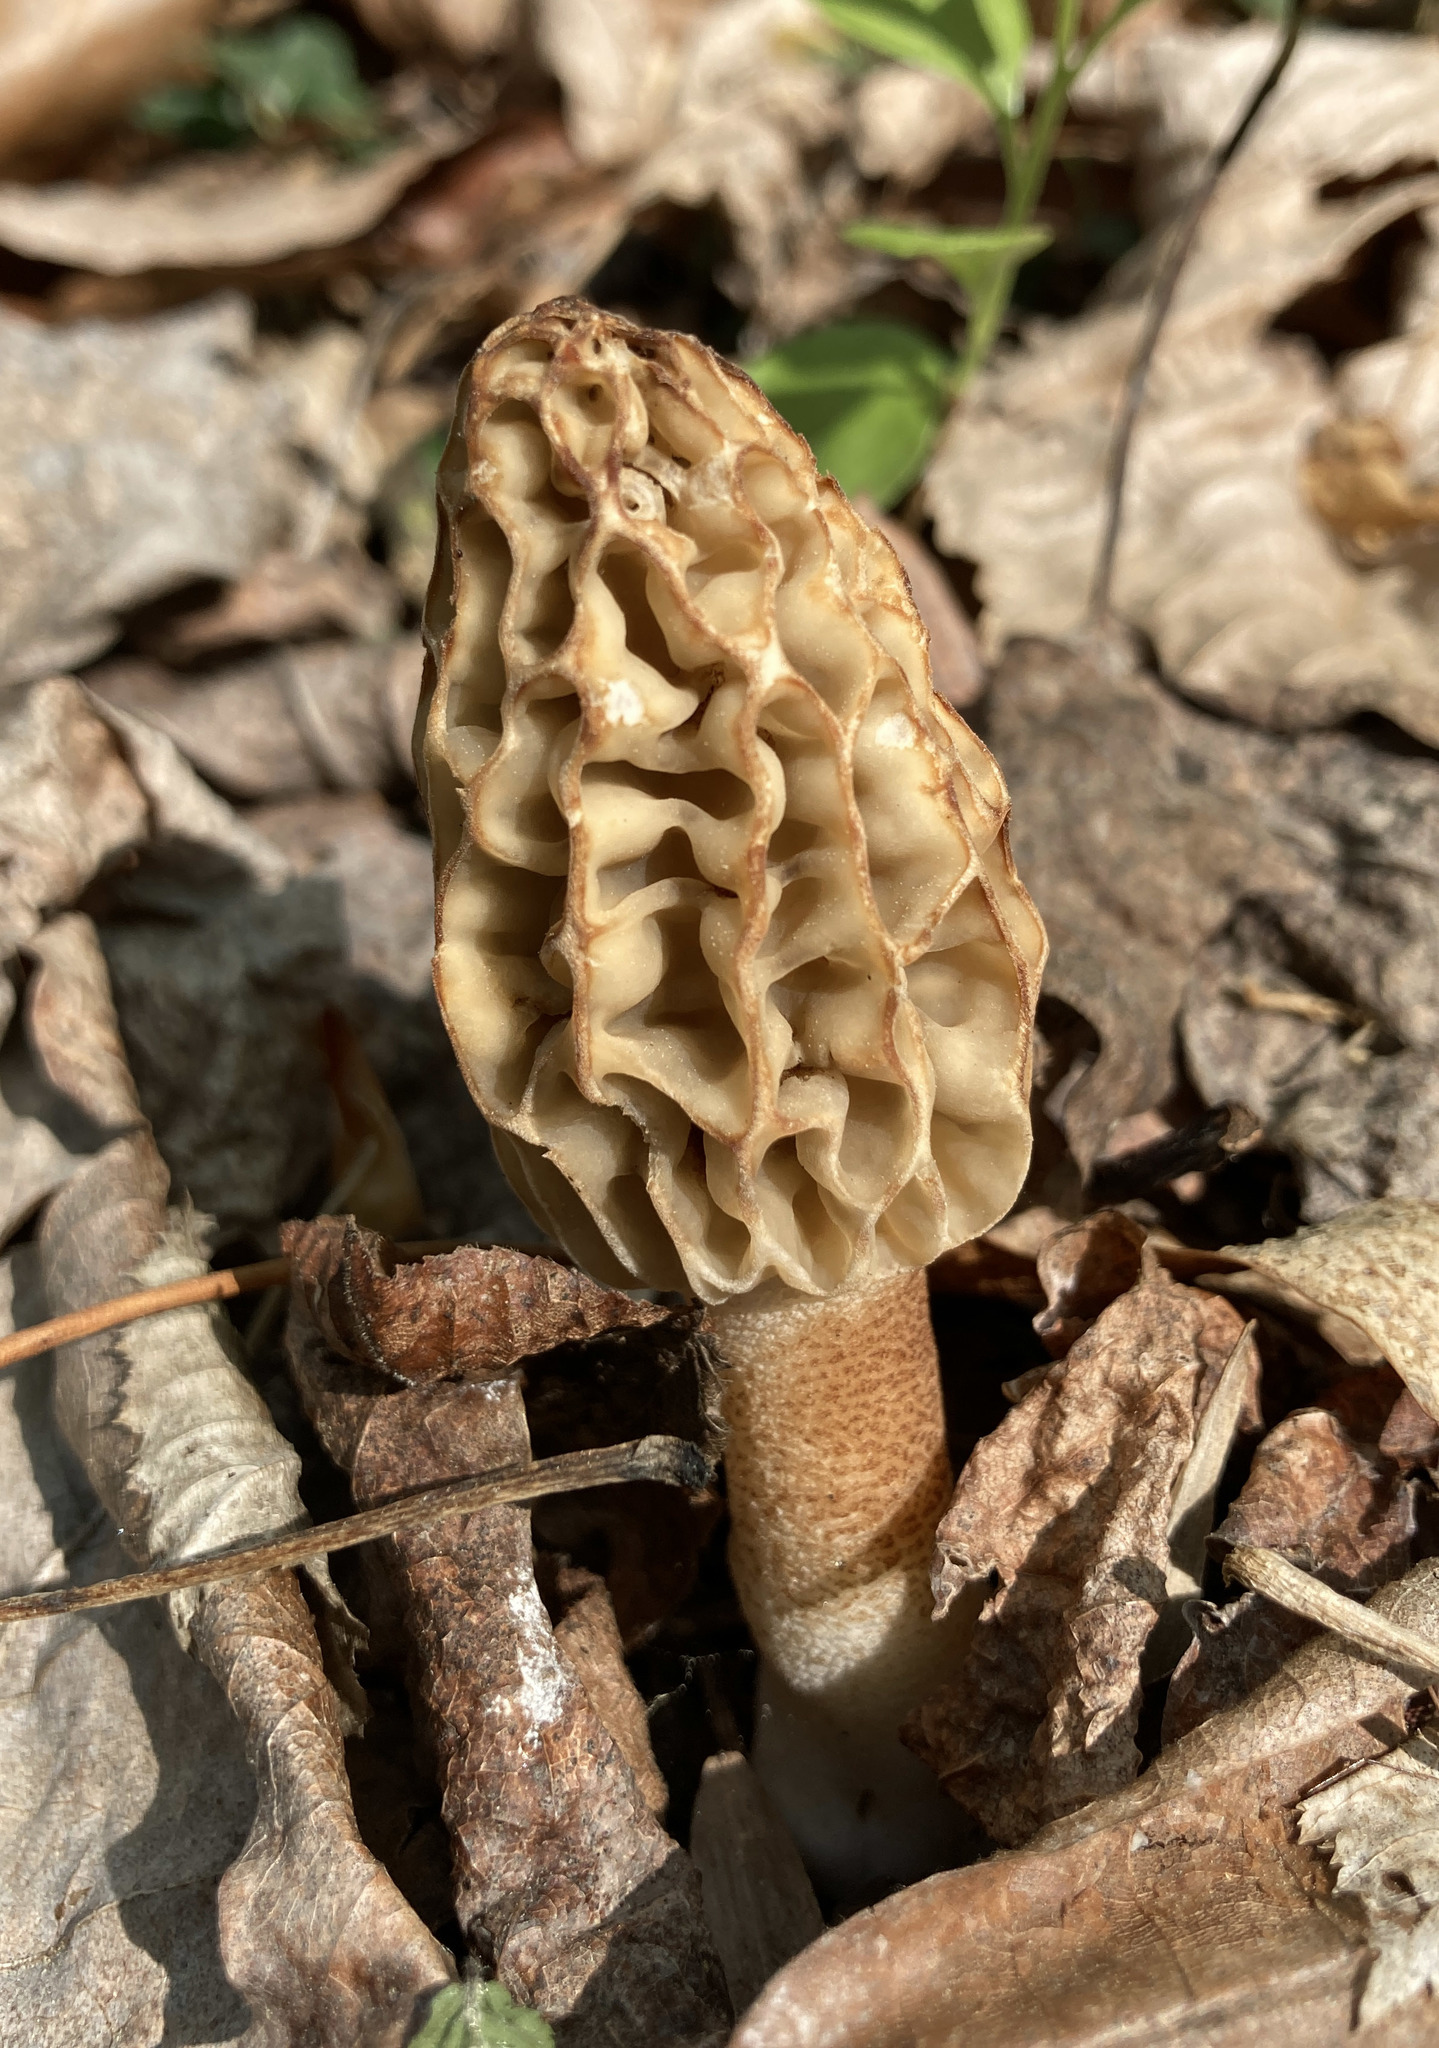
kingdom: Fungi
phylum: Ascomycota
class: Pezizomycetes
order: Pezizales
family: Morchellaceae
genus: Morchella
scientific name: Morchella americana
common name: White morel
